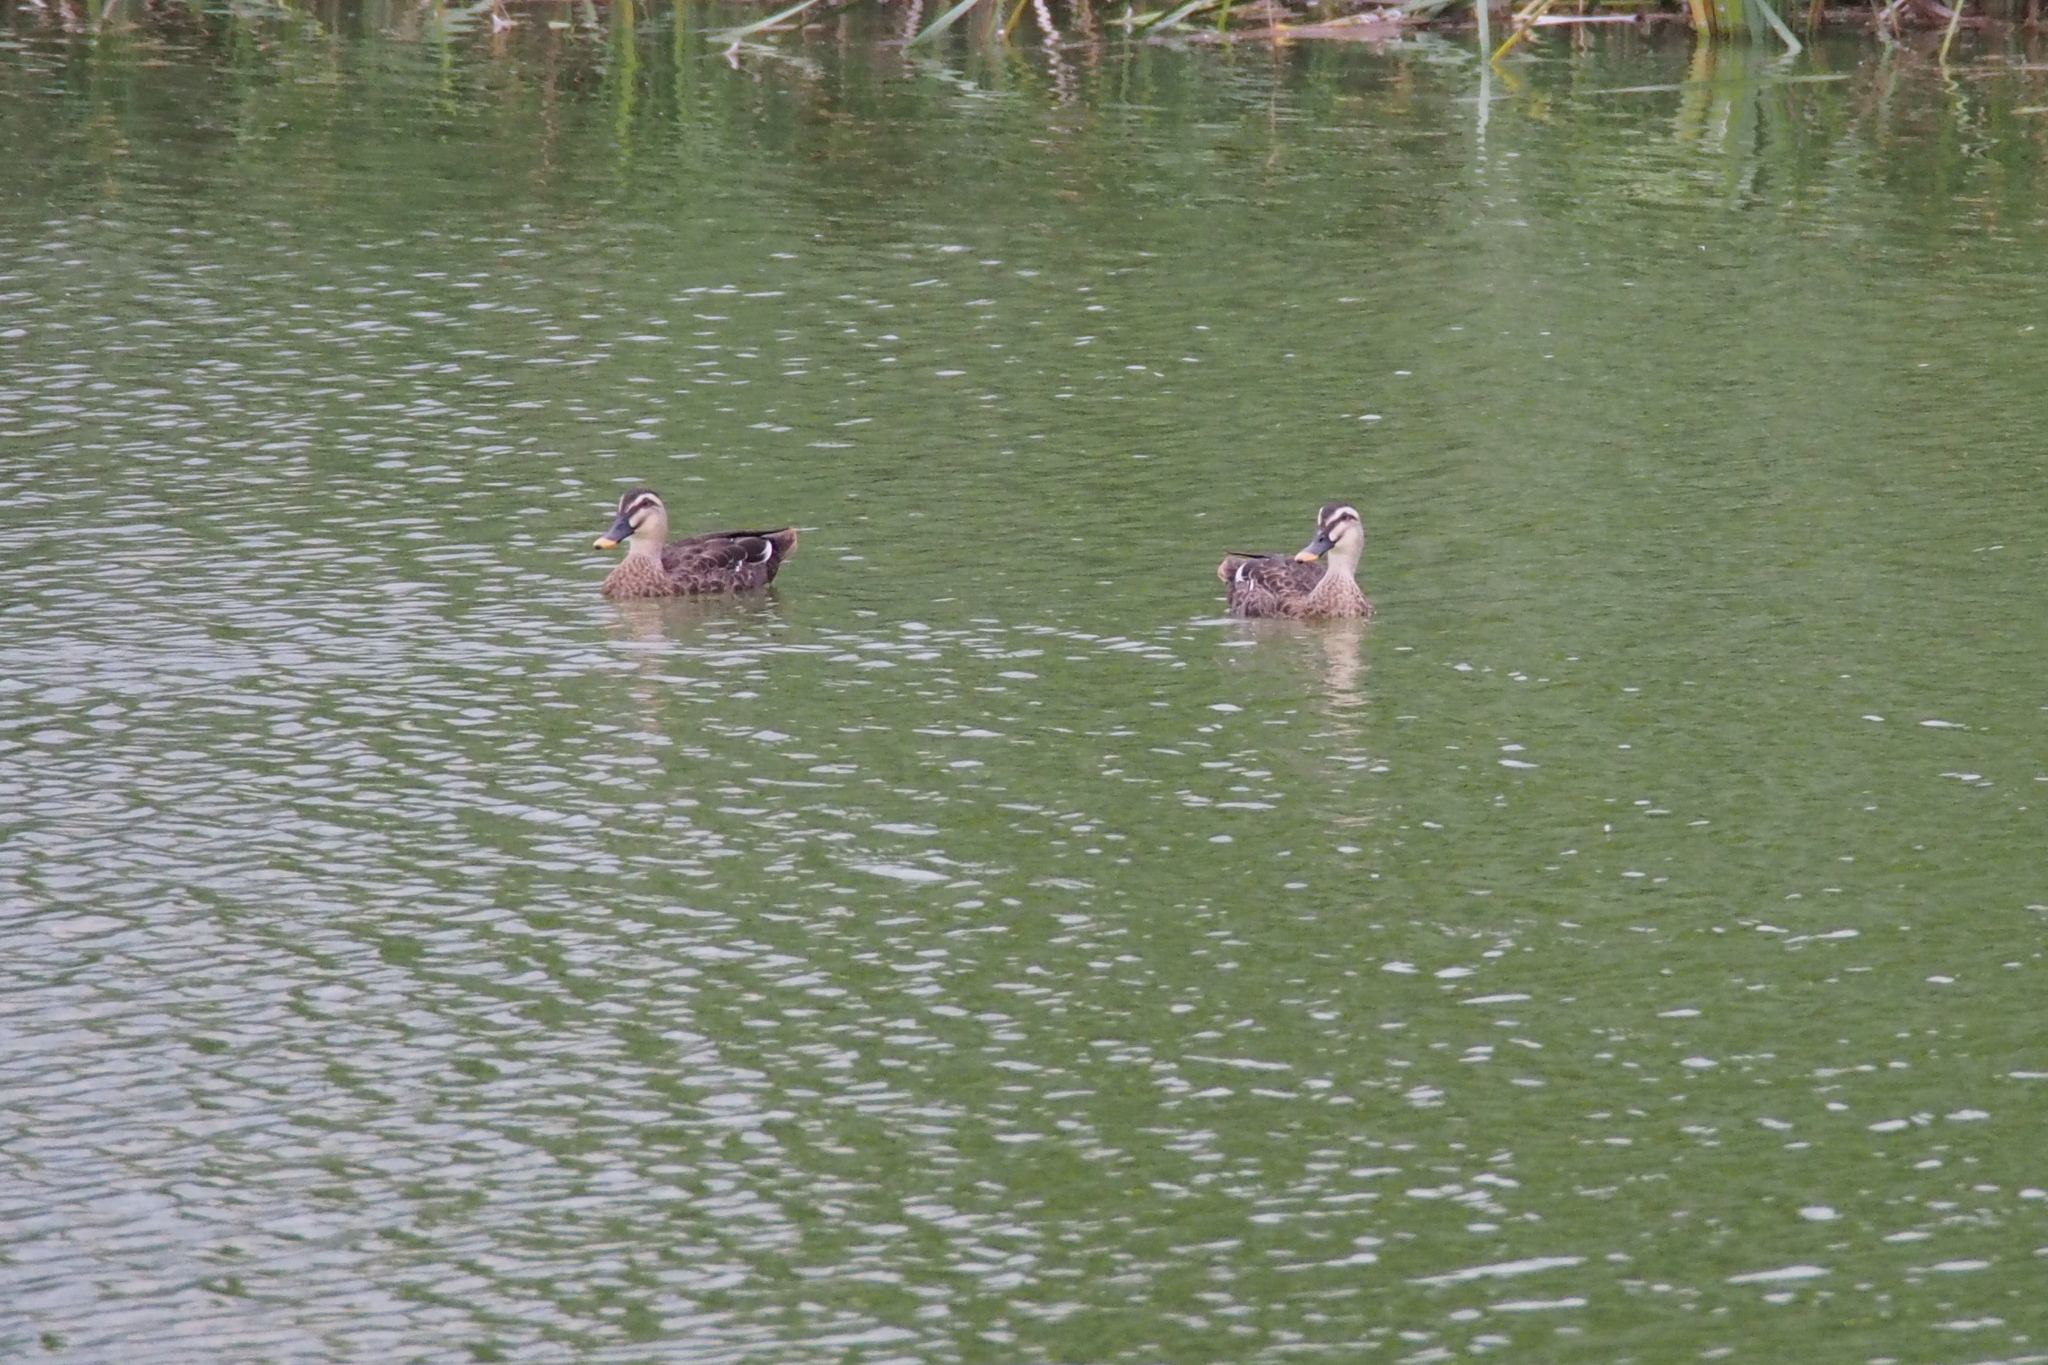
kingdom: Animalia
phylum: Chordata
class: Aves
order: Anseriformes
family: Anatidae
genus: Anas
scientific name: Anas zonorhyncha
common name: Eastern spot-billed duck
